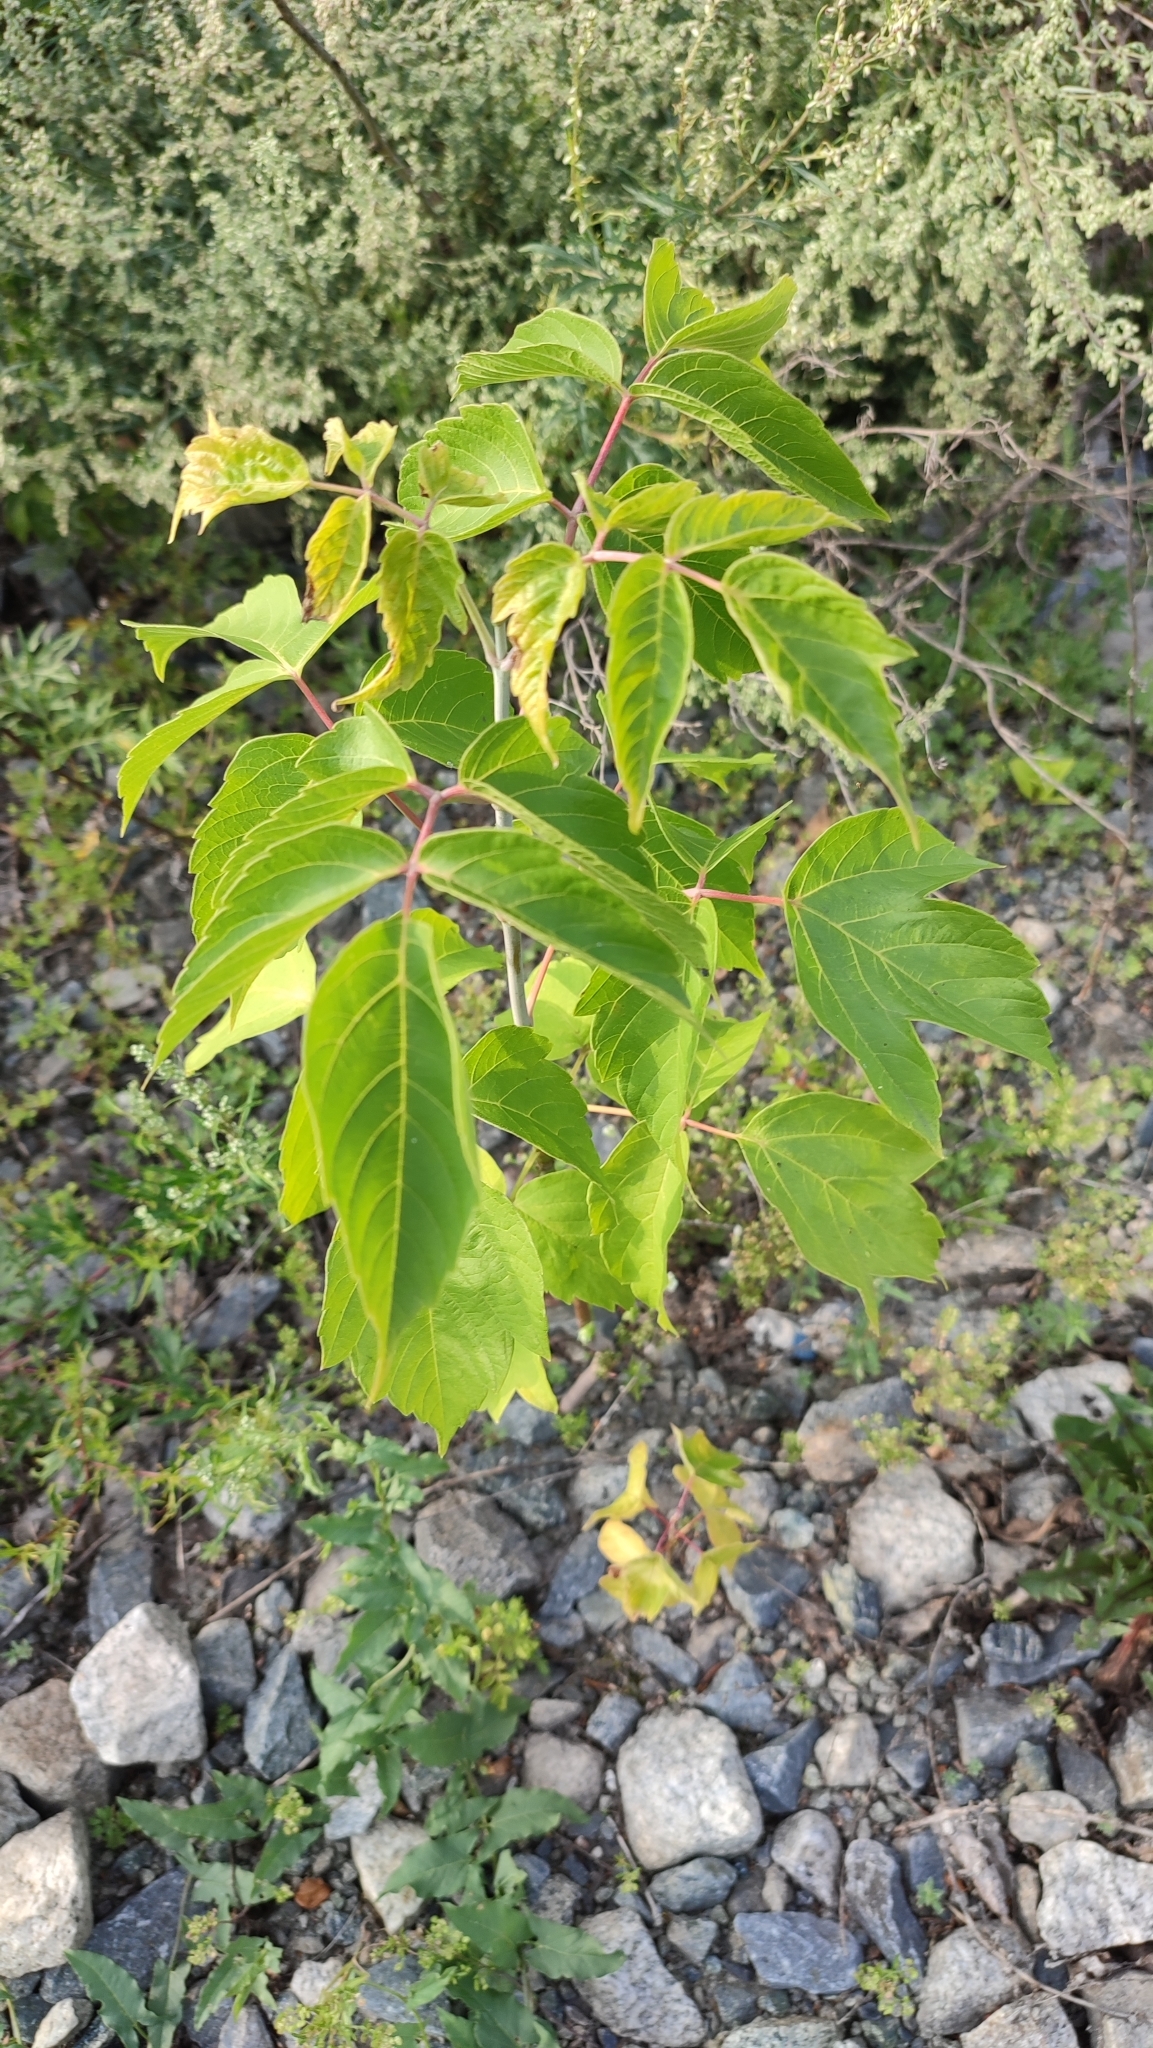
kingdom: Plantae
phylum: Tracheophyta
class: Magnoliopsida
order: Sapindales
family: Sapindaceae
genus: Acer
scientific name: Acer negundo
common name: Ashleaf maple
